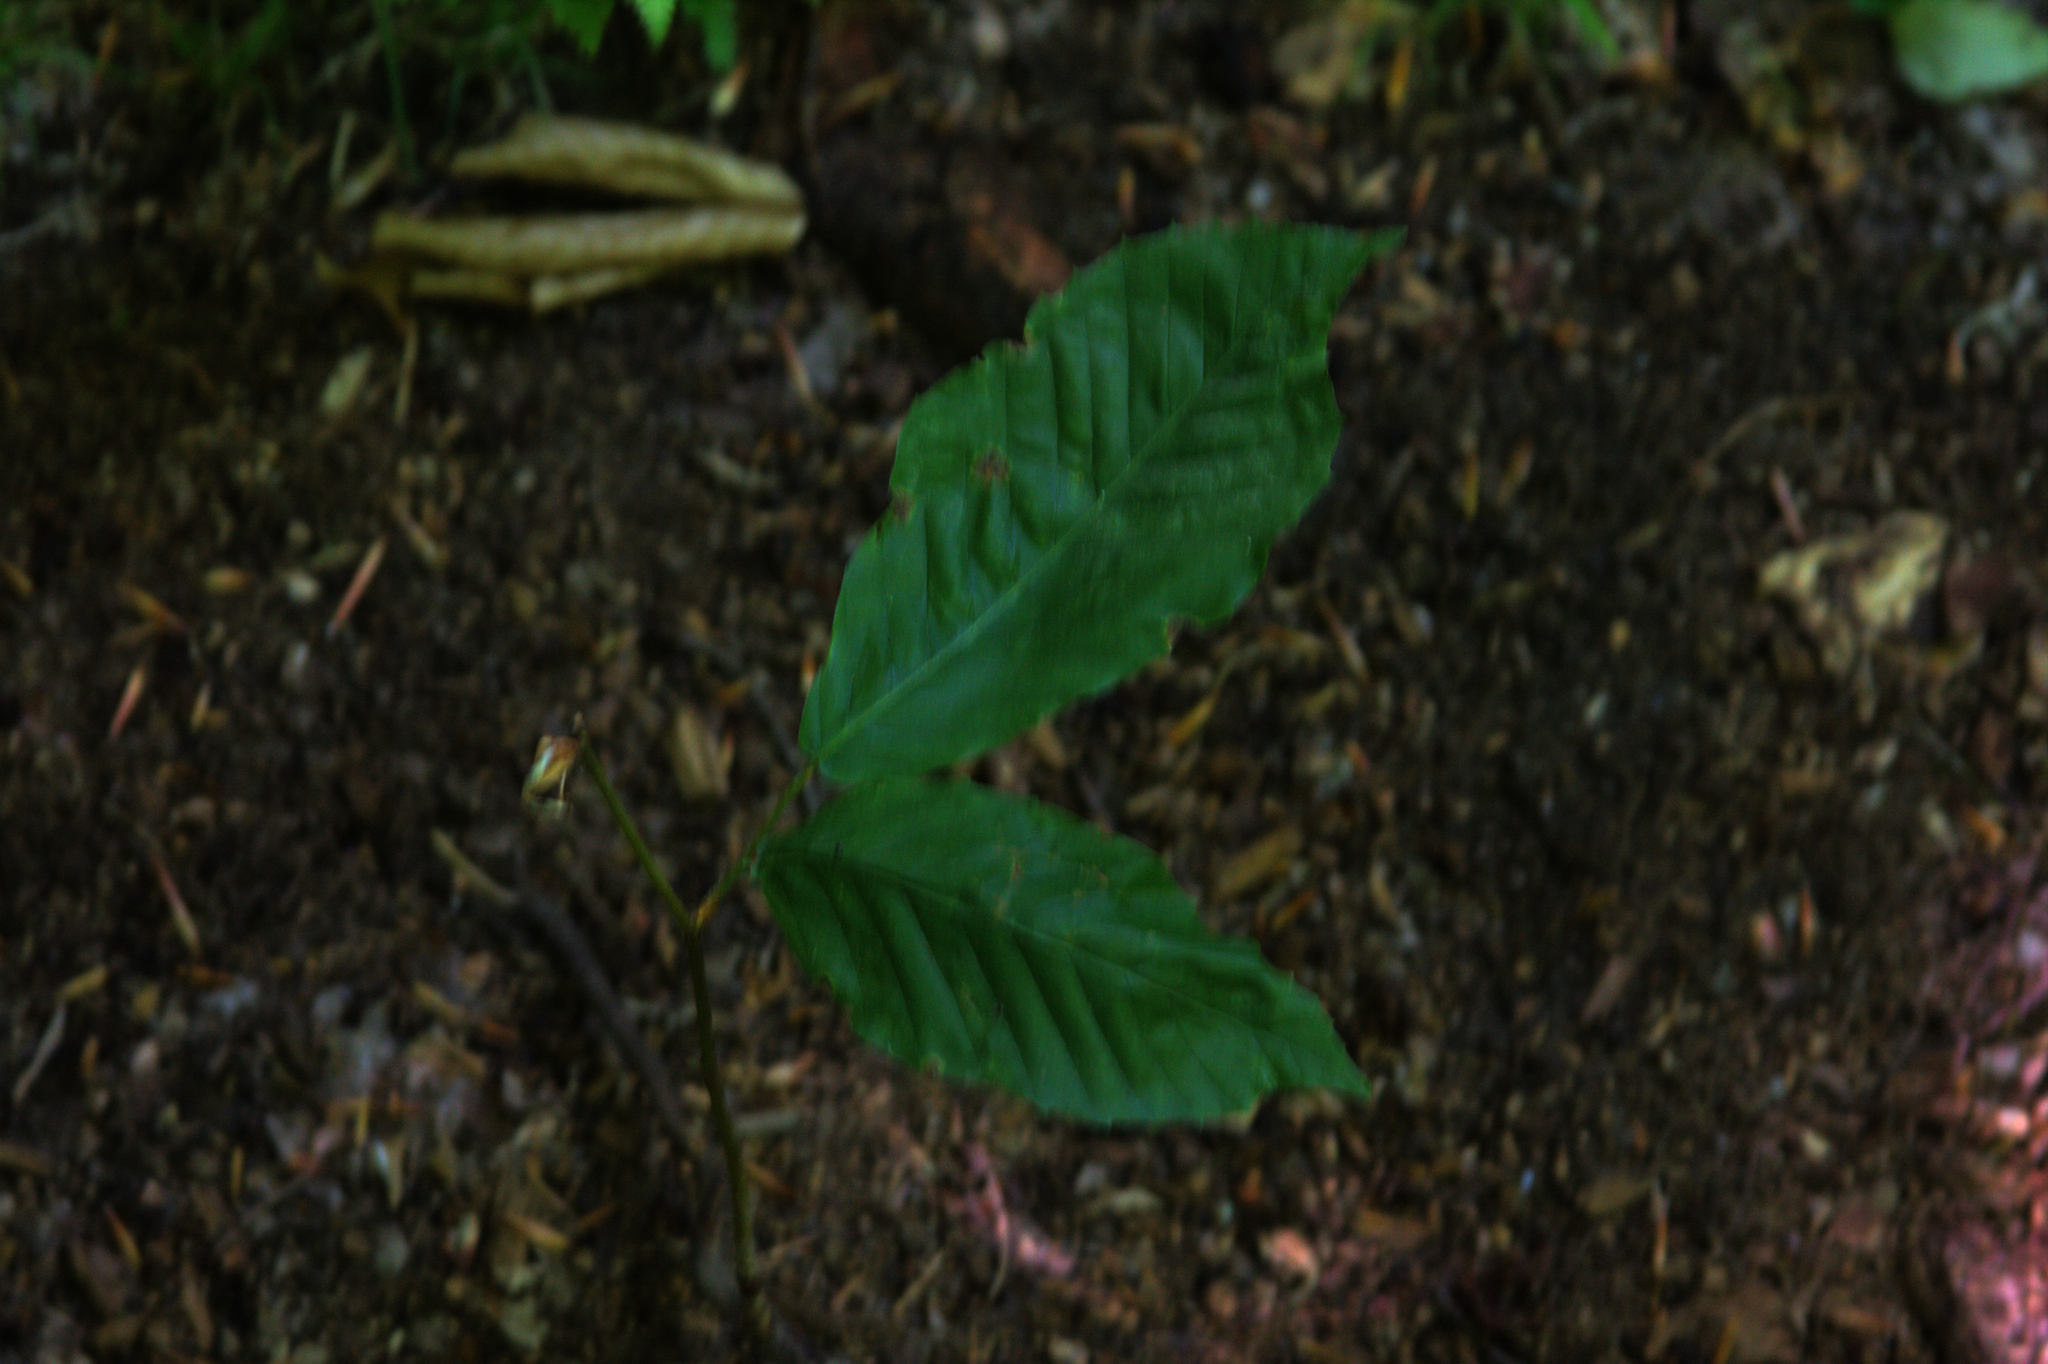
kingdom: Plantae
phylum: Tracheophyta
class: Magnoliopsida
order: Fagales
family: Fagaceae
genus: Fagus
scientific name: Fagus grandifolia
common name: American beech
